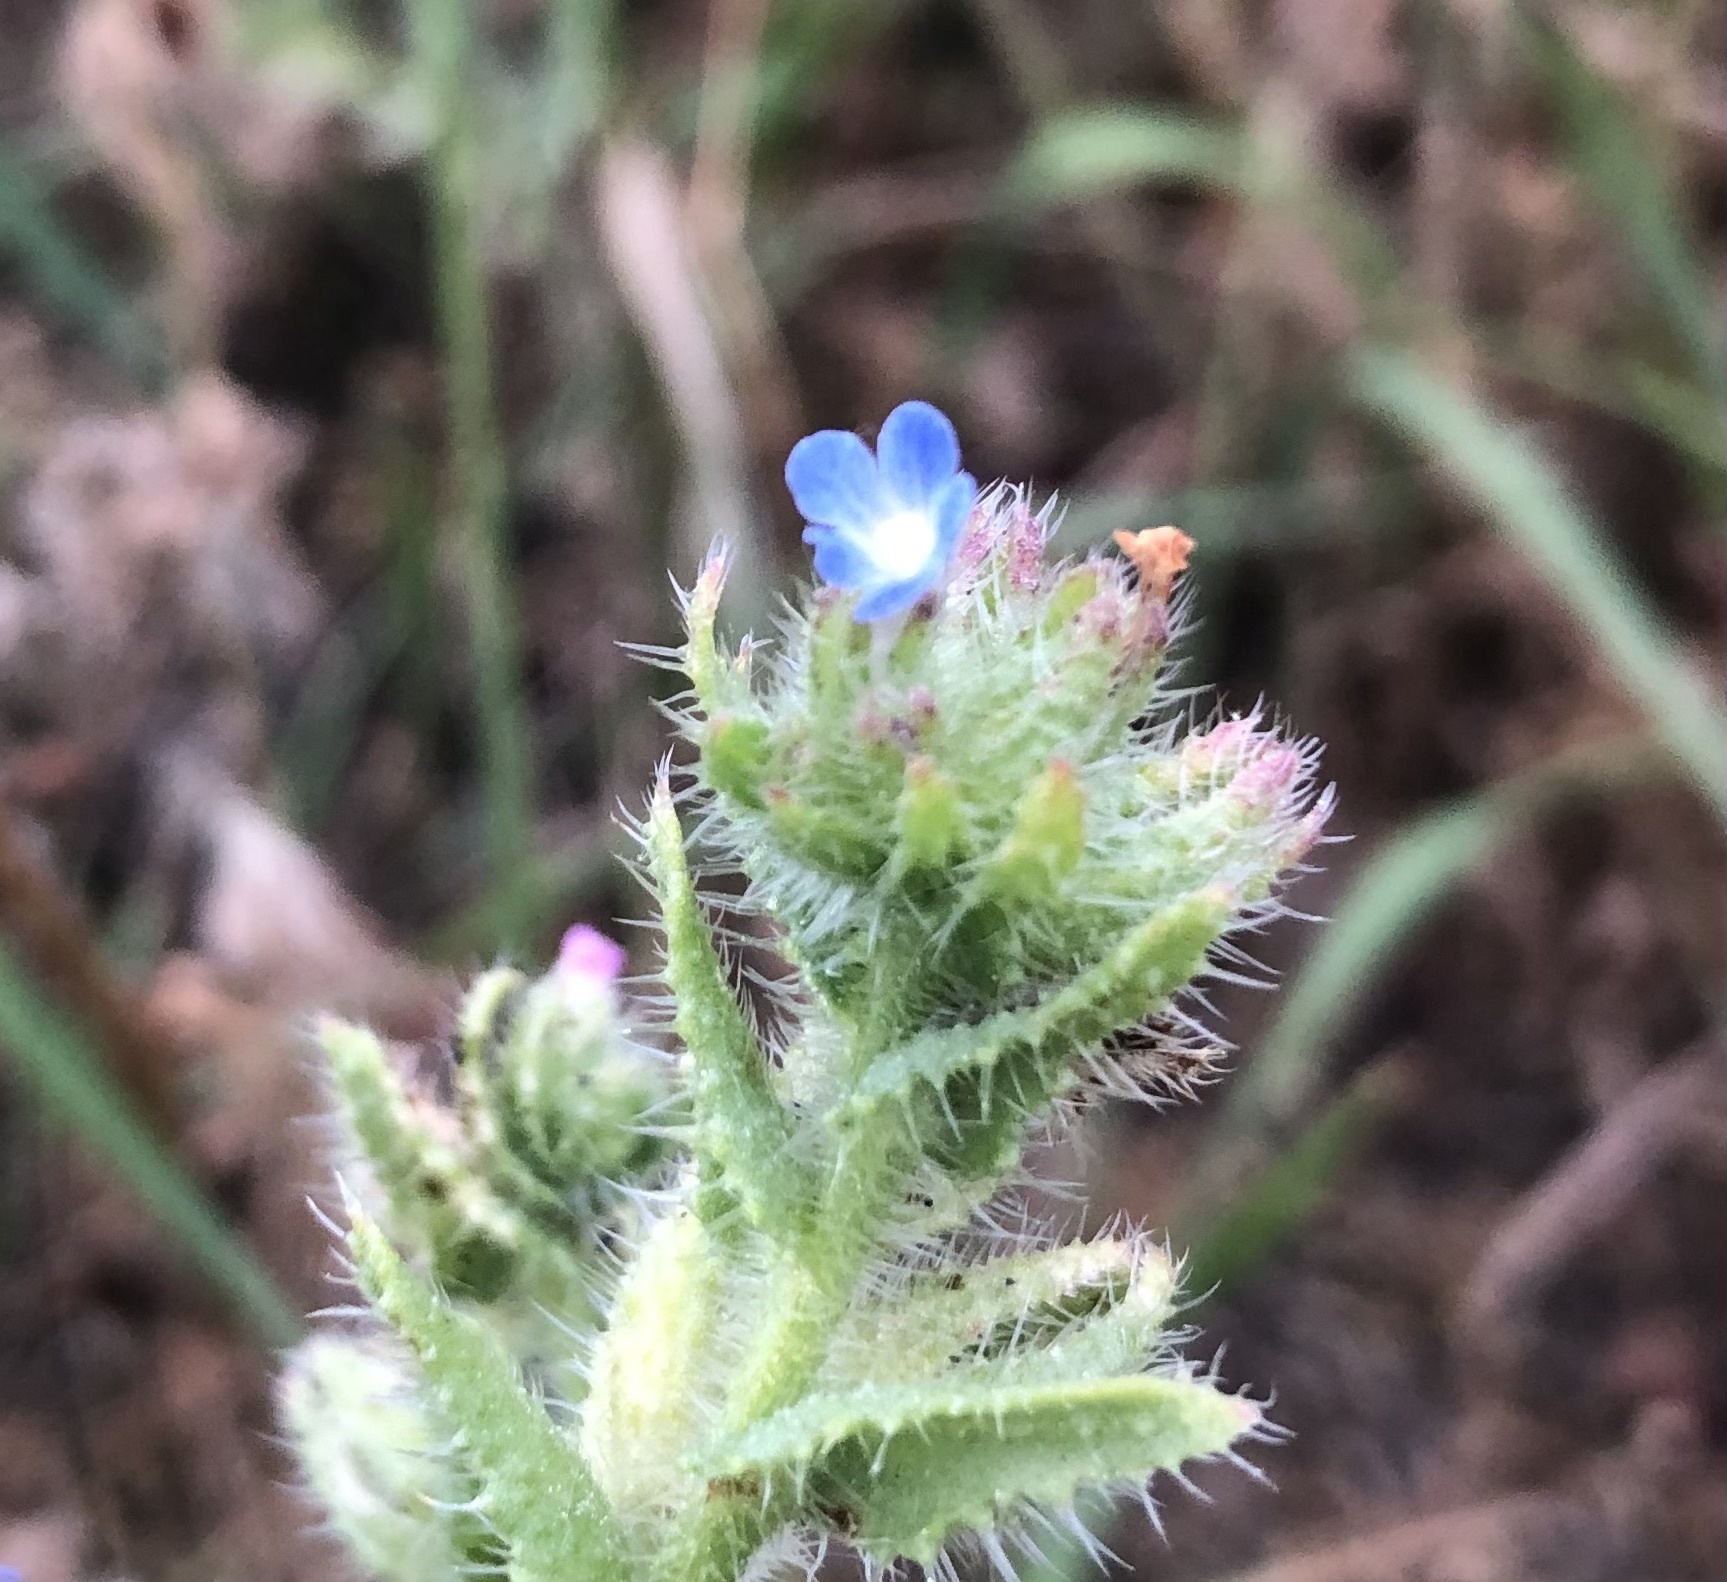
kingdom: Plantae
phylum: Tracheophyta
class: Magnoliopsida
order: Boraginales
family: Boraginaceae
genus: Lycopsis
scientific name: Lycopsis arvensis
